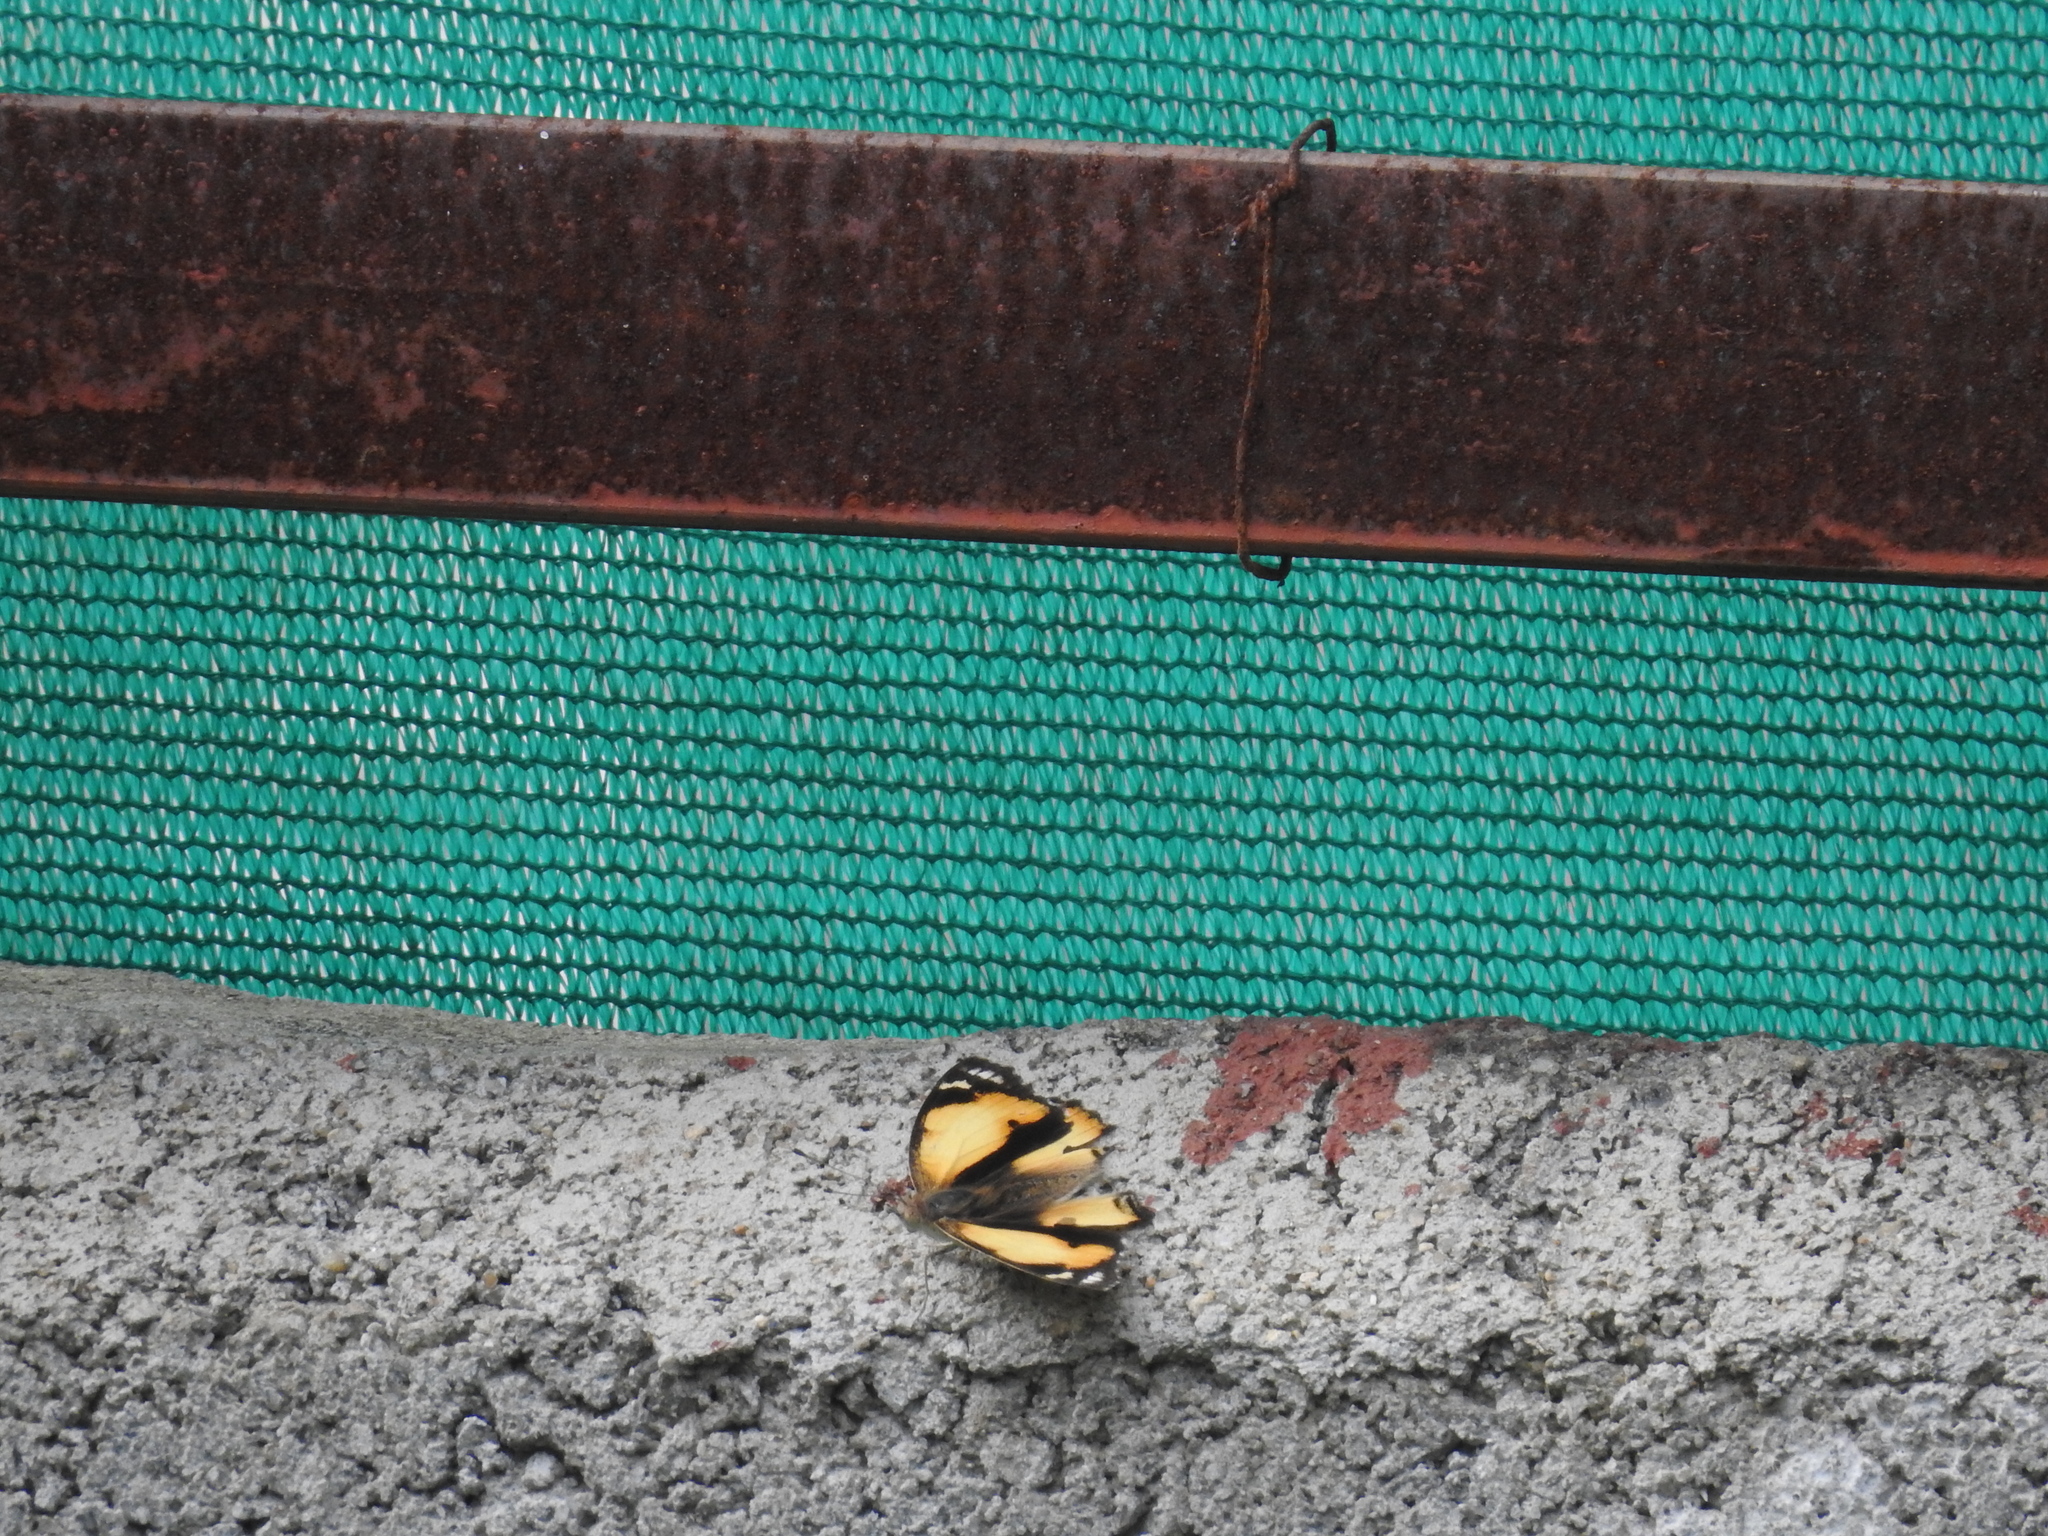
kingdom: Animalia
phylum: Arthropoda
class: Insecta
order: Lepidoptera
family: Nymphalidae
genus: Junonia
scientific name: Junonia hierta
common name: Yellow pansy
